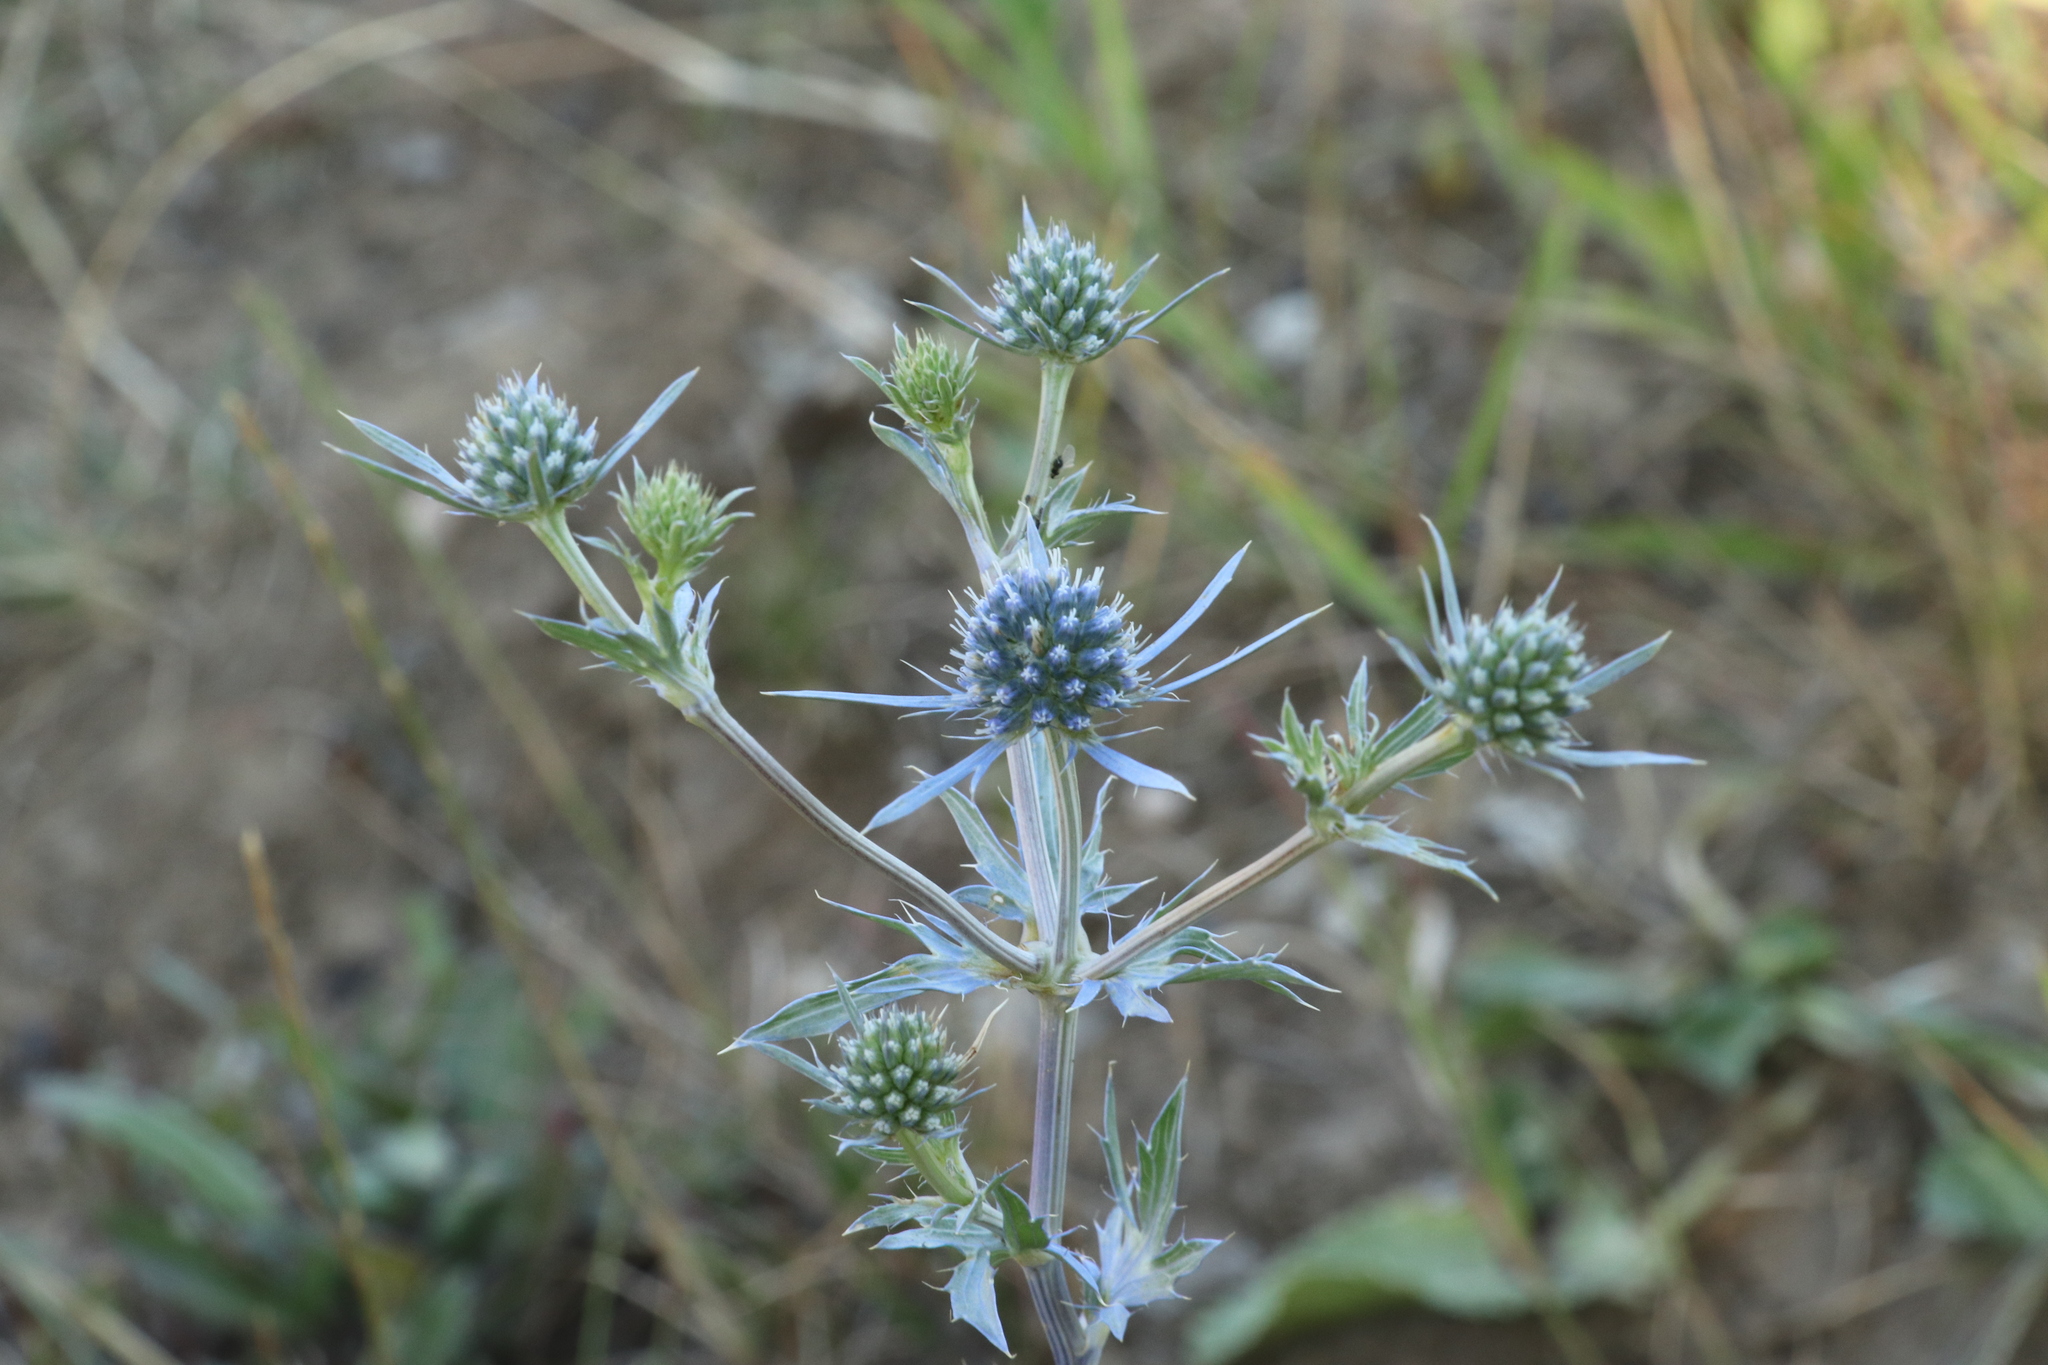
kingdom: Plantae
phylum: Tracheophyta
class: Magnoliopsida
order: Apiales
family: Apiaceae
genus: Eryngium
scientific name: Eryngium planum
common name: Blue eryngo
